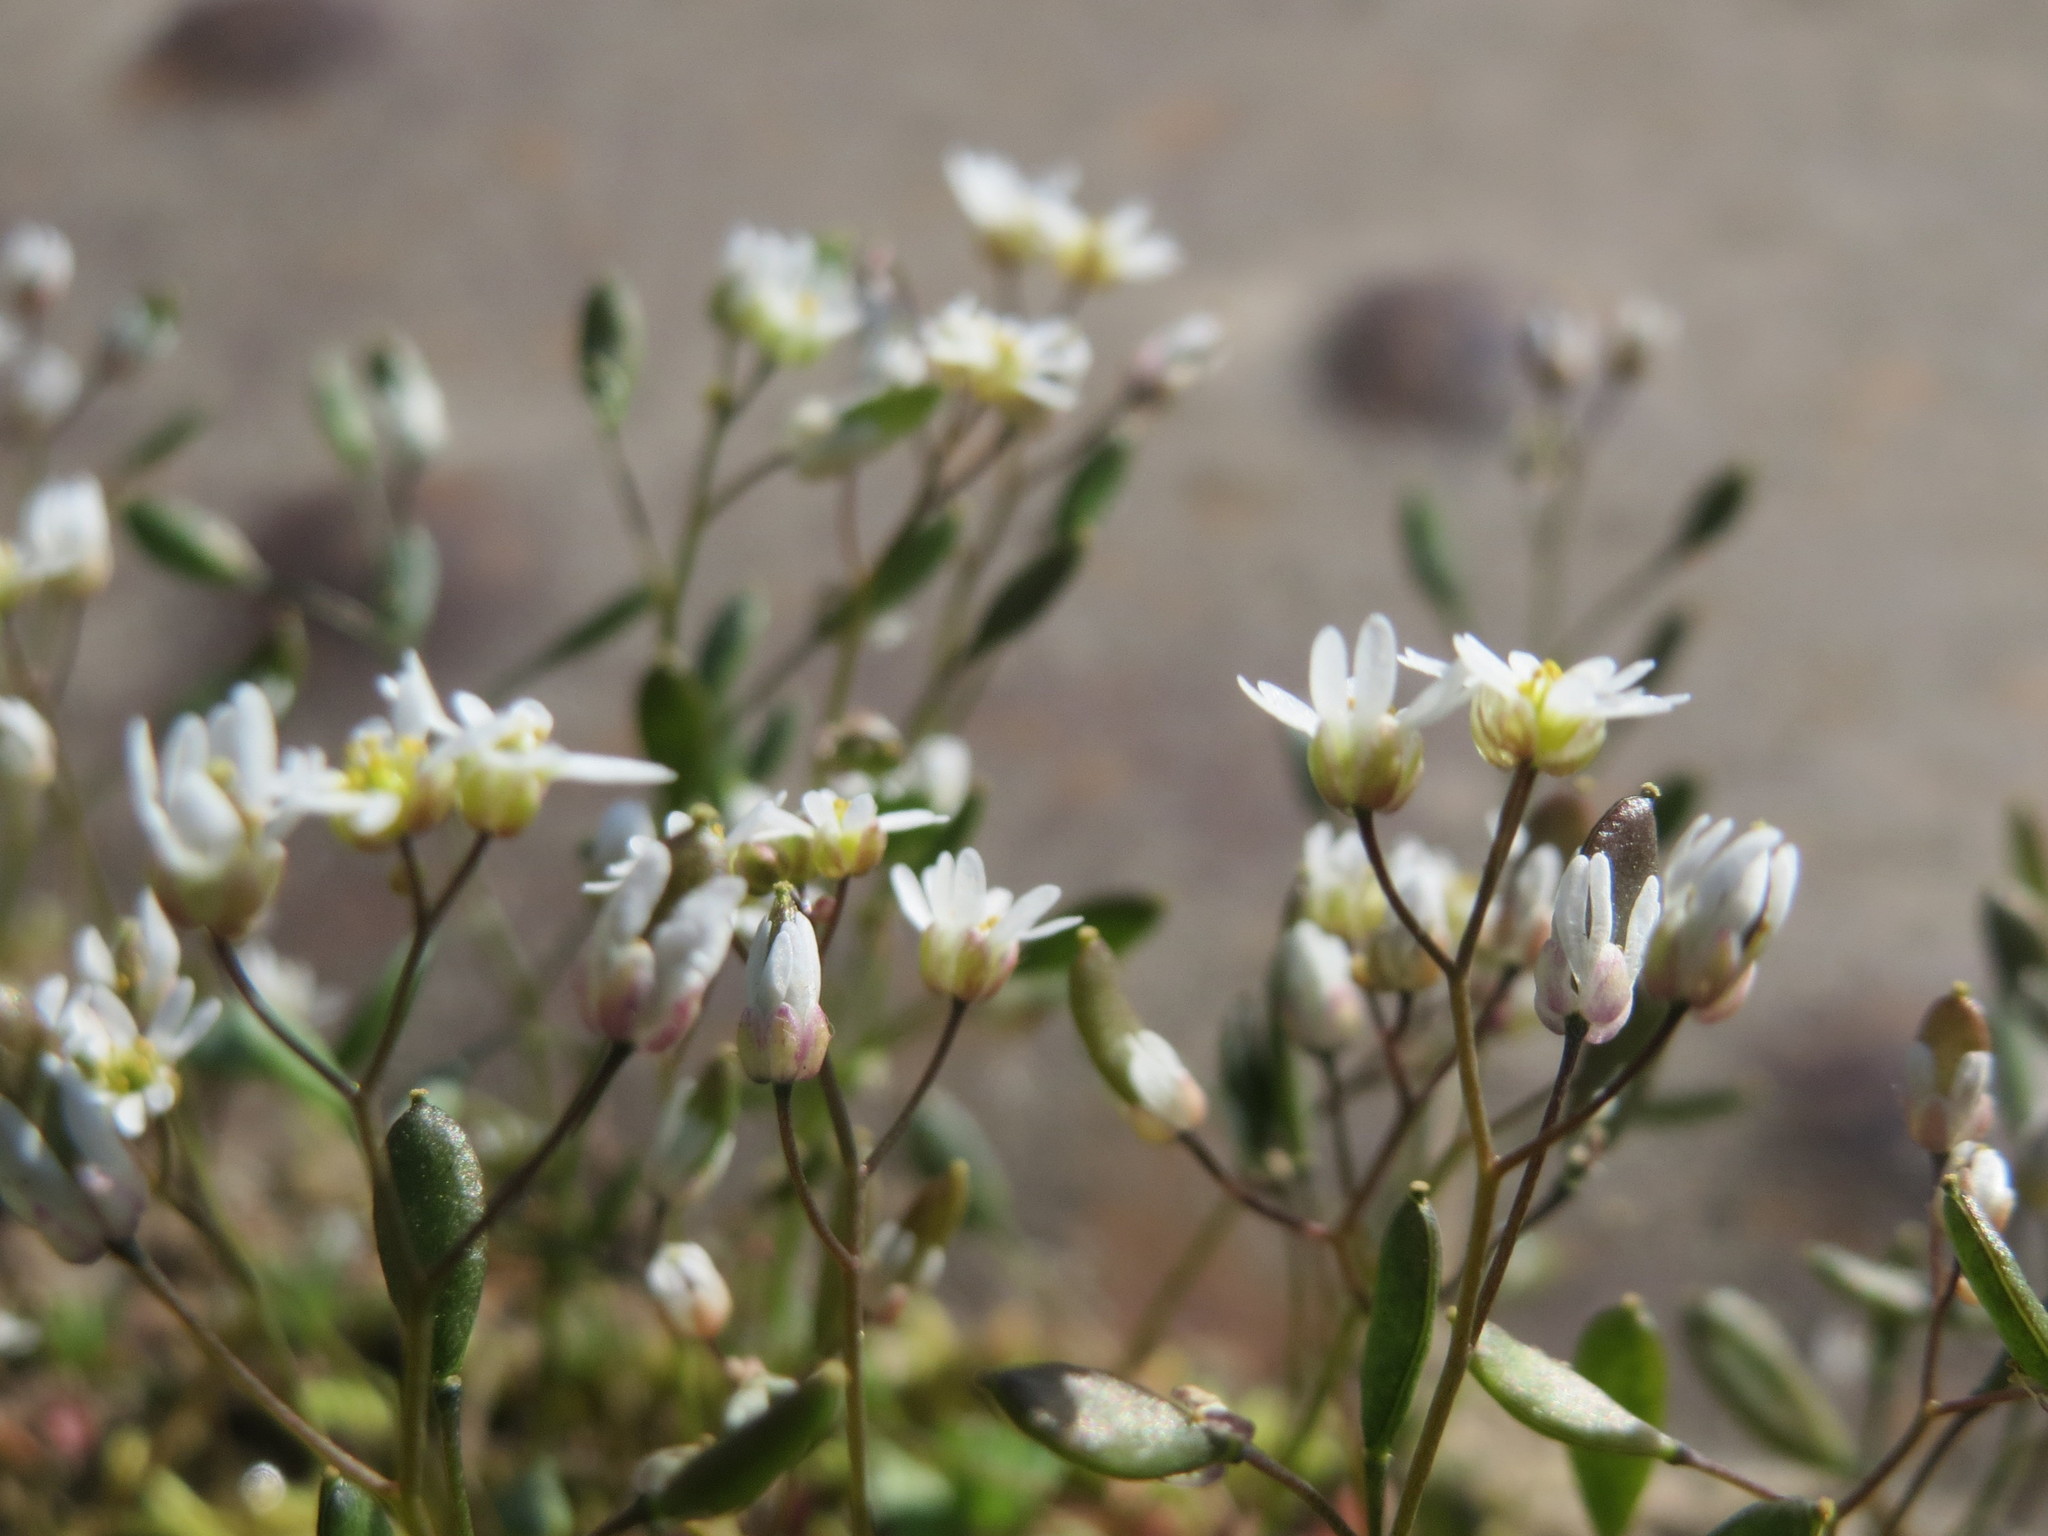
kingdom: Plantae
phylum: Tracheophyta
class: Magnoliopsida
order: Brassicales
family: Brassicaceae
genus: Draba
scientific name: Draba verna
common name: Spring draba
